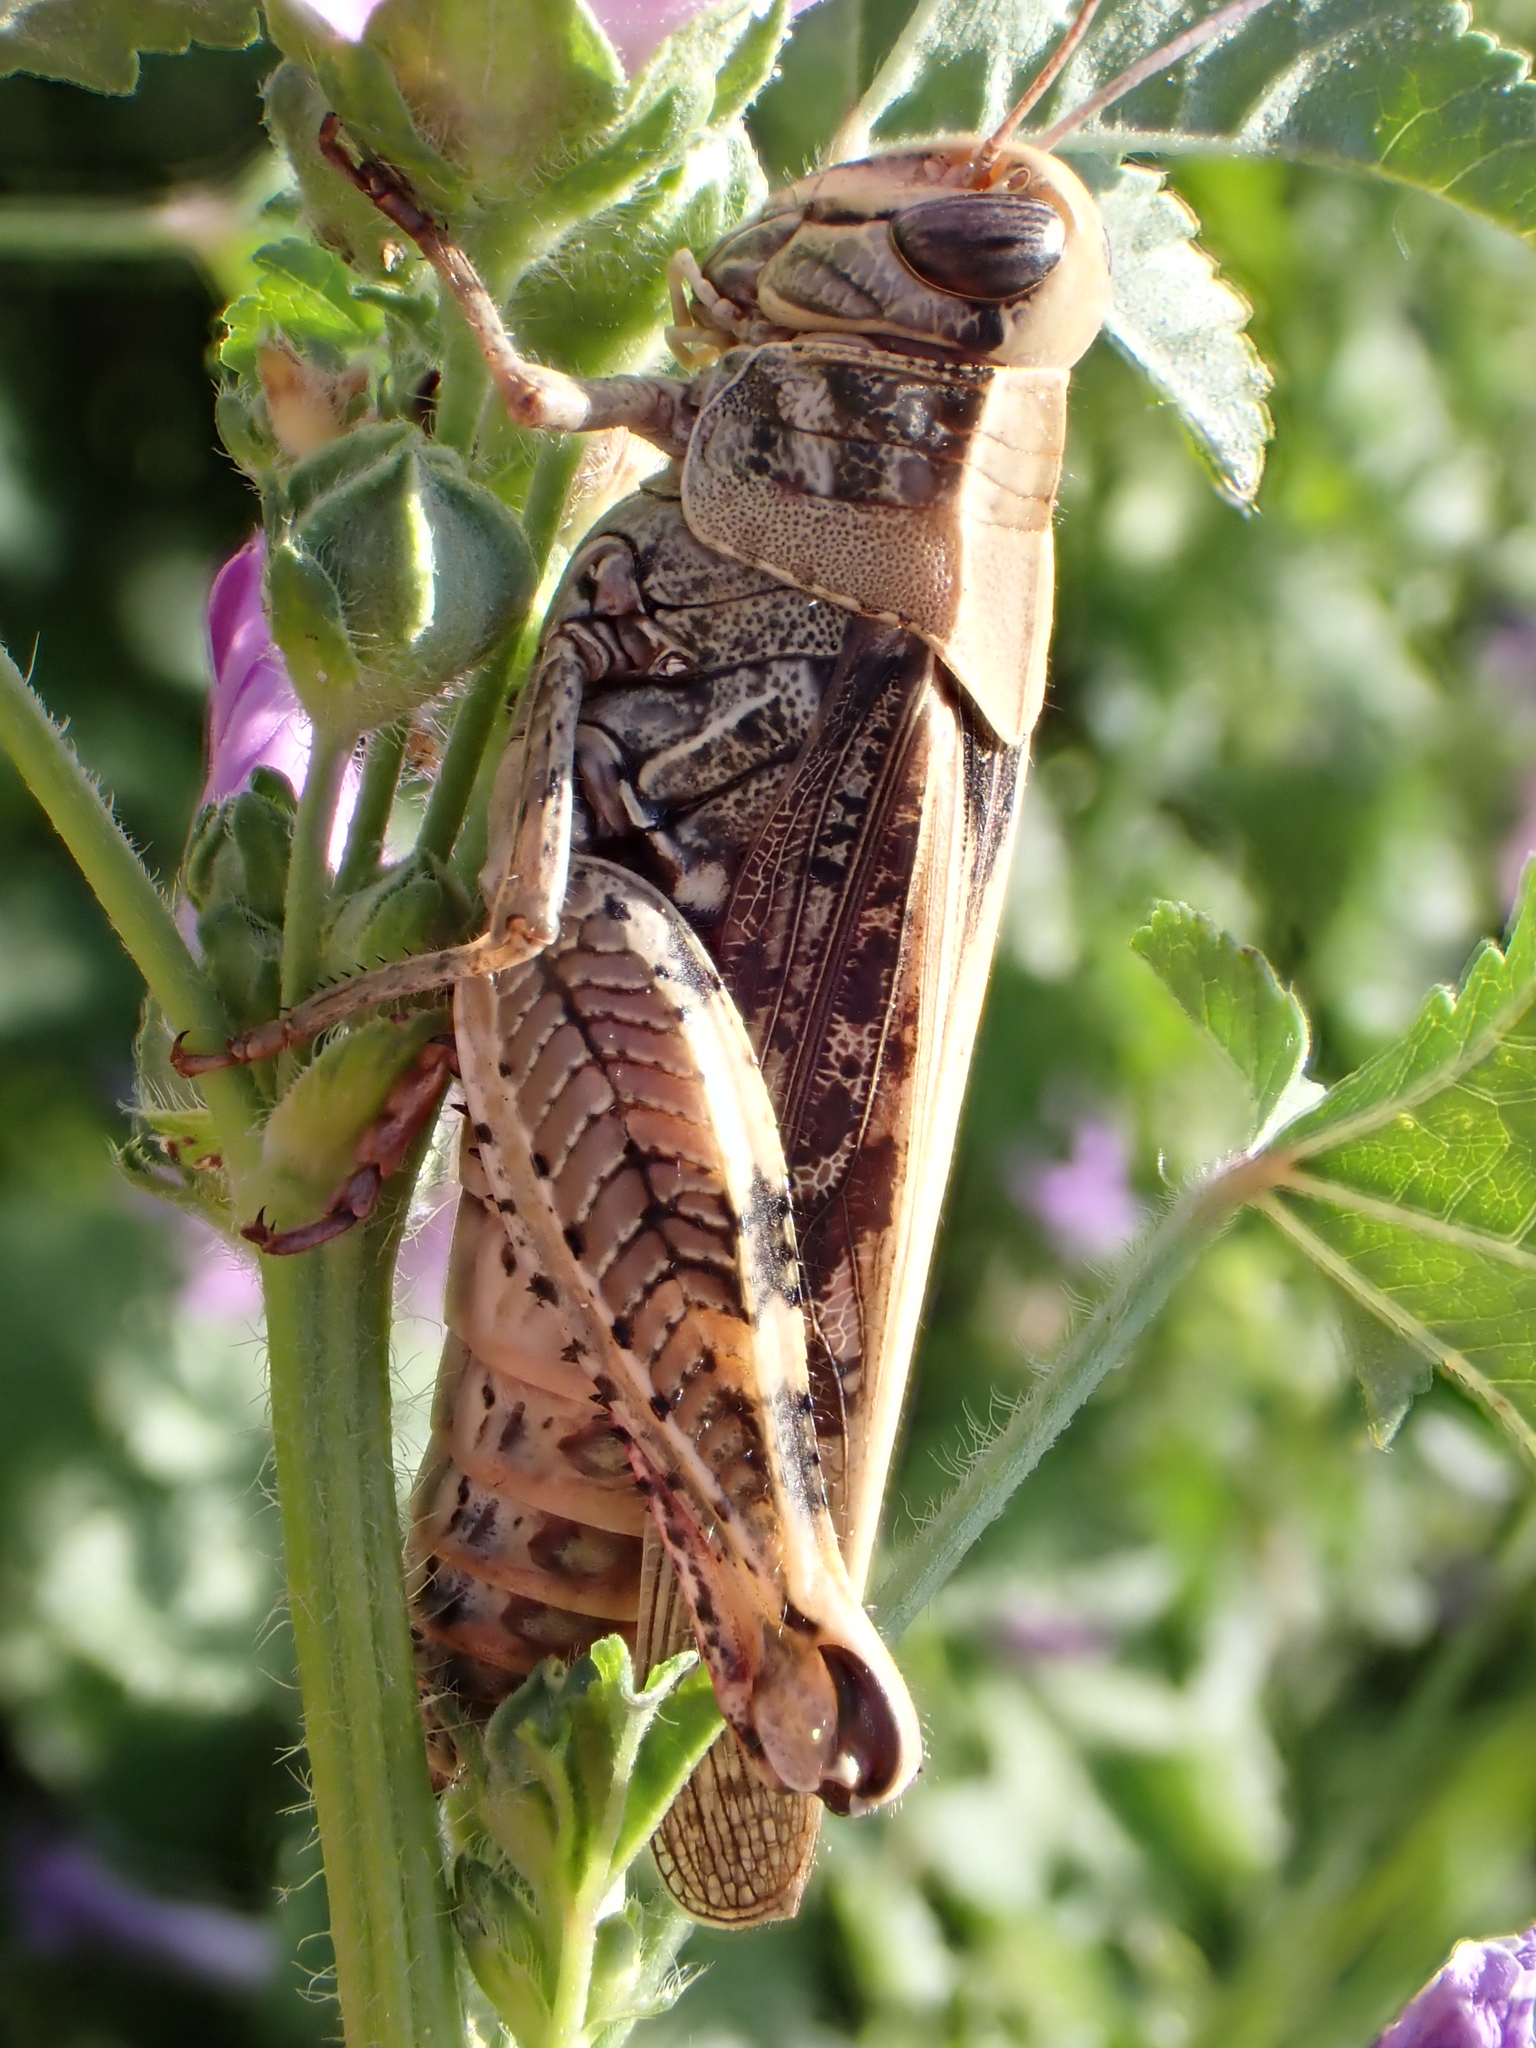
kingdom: Animalia
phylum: Arthropoda
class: Insecta
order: Orthoptera
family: Acrididae
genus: Calliptamus
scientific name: Calliptamus italicus
